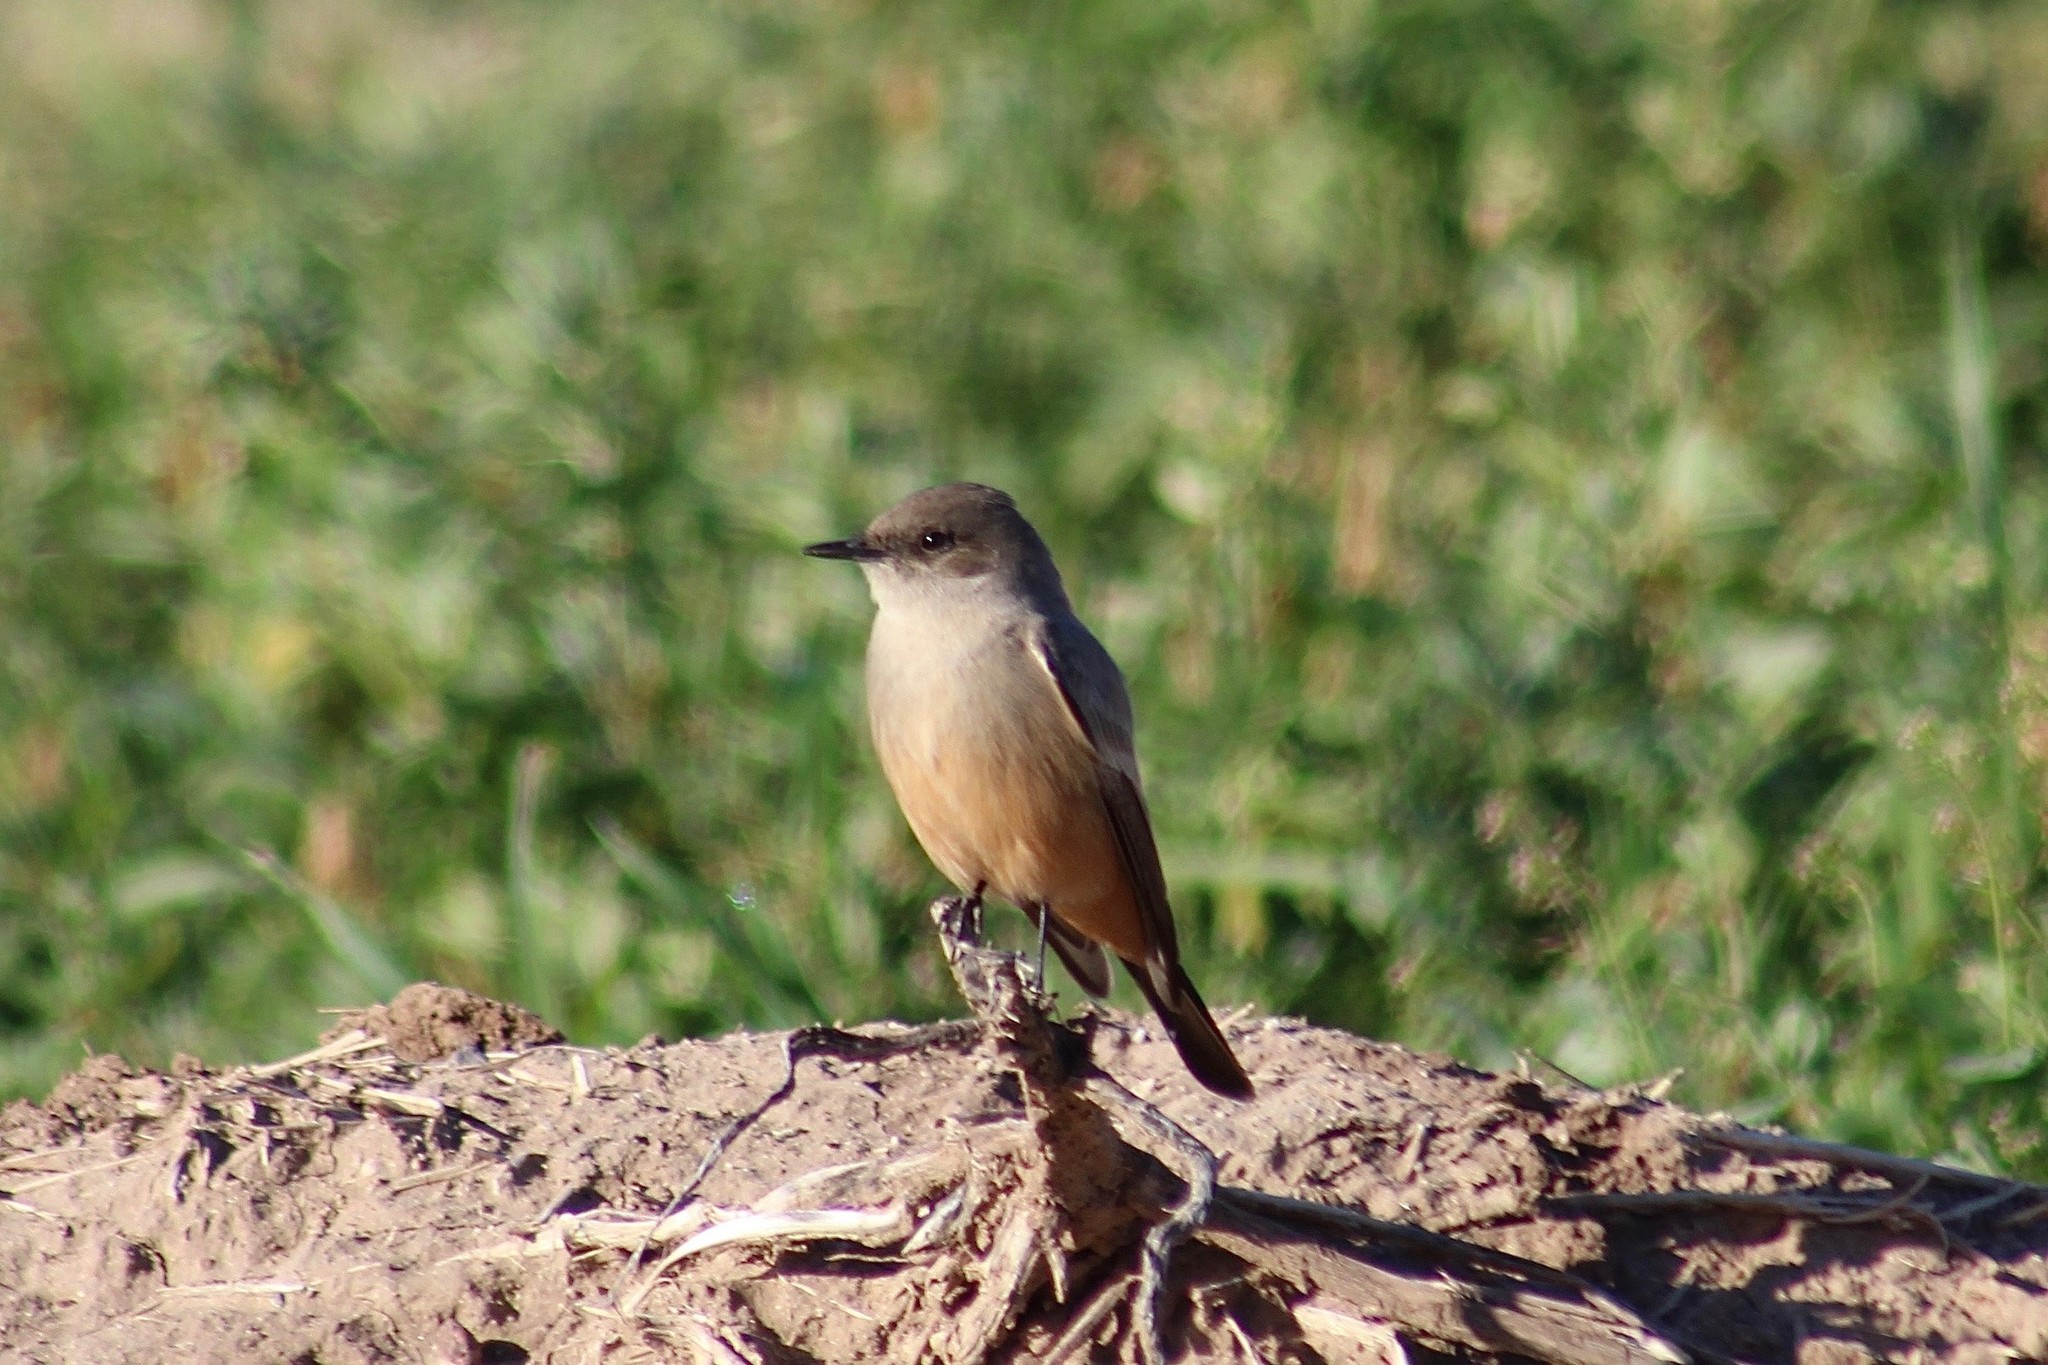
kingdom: Animalia
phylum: Chordata
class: Aves
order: Passeriformes
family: Tyrannidae
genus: Sayornis
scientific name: Sayornis saya
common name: Say's phoebe
